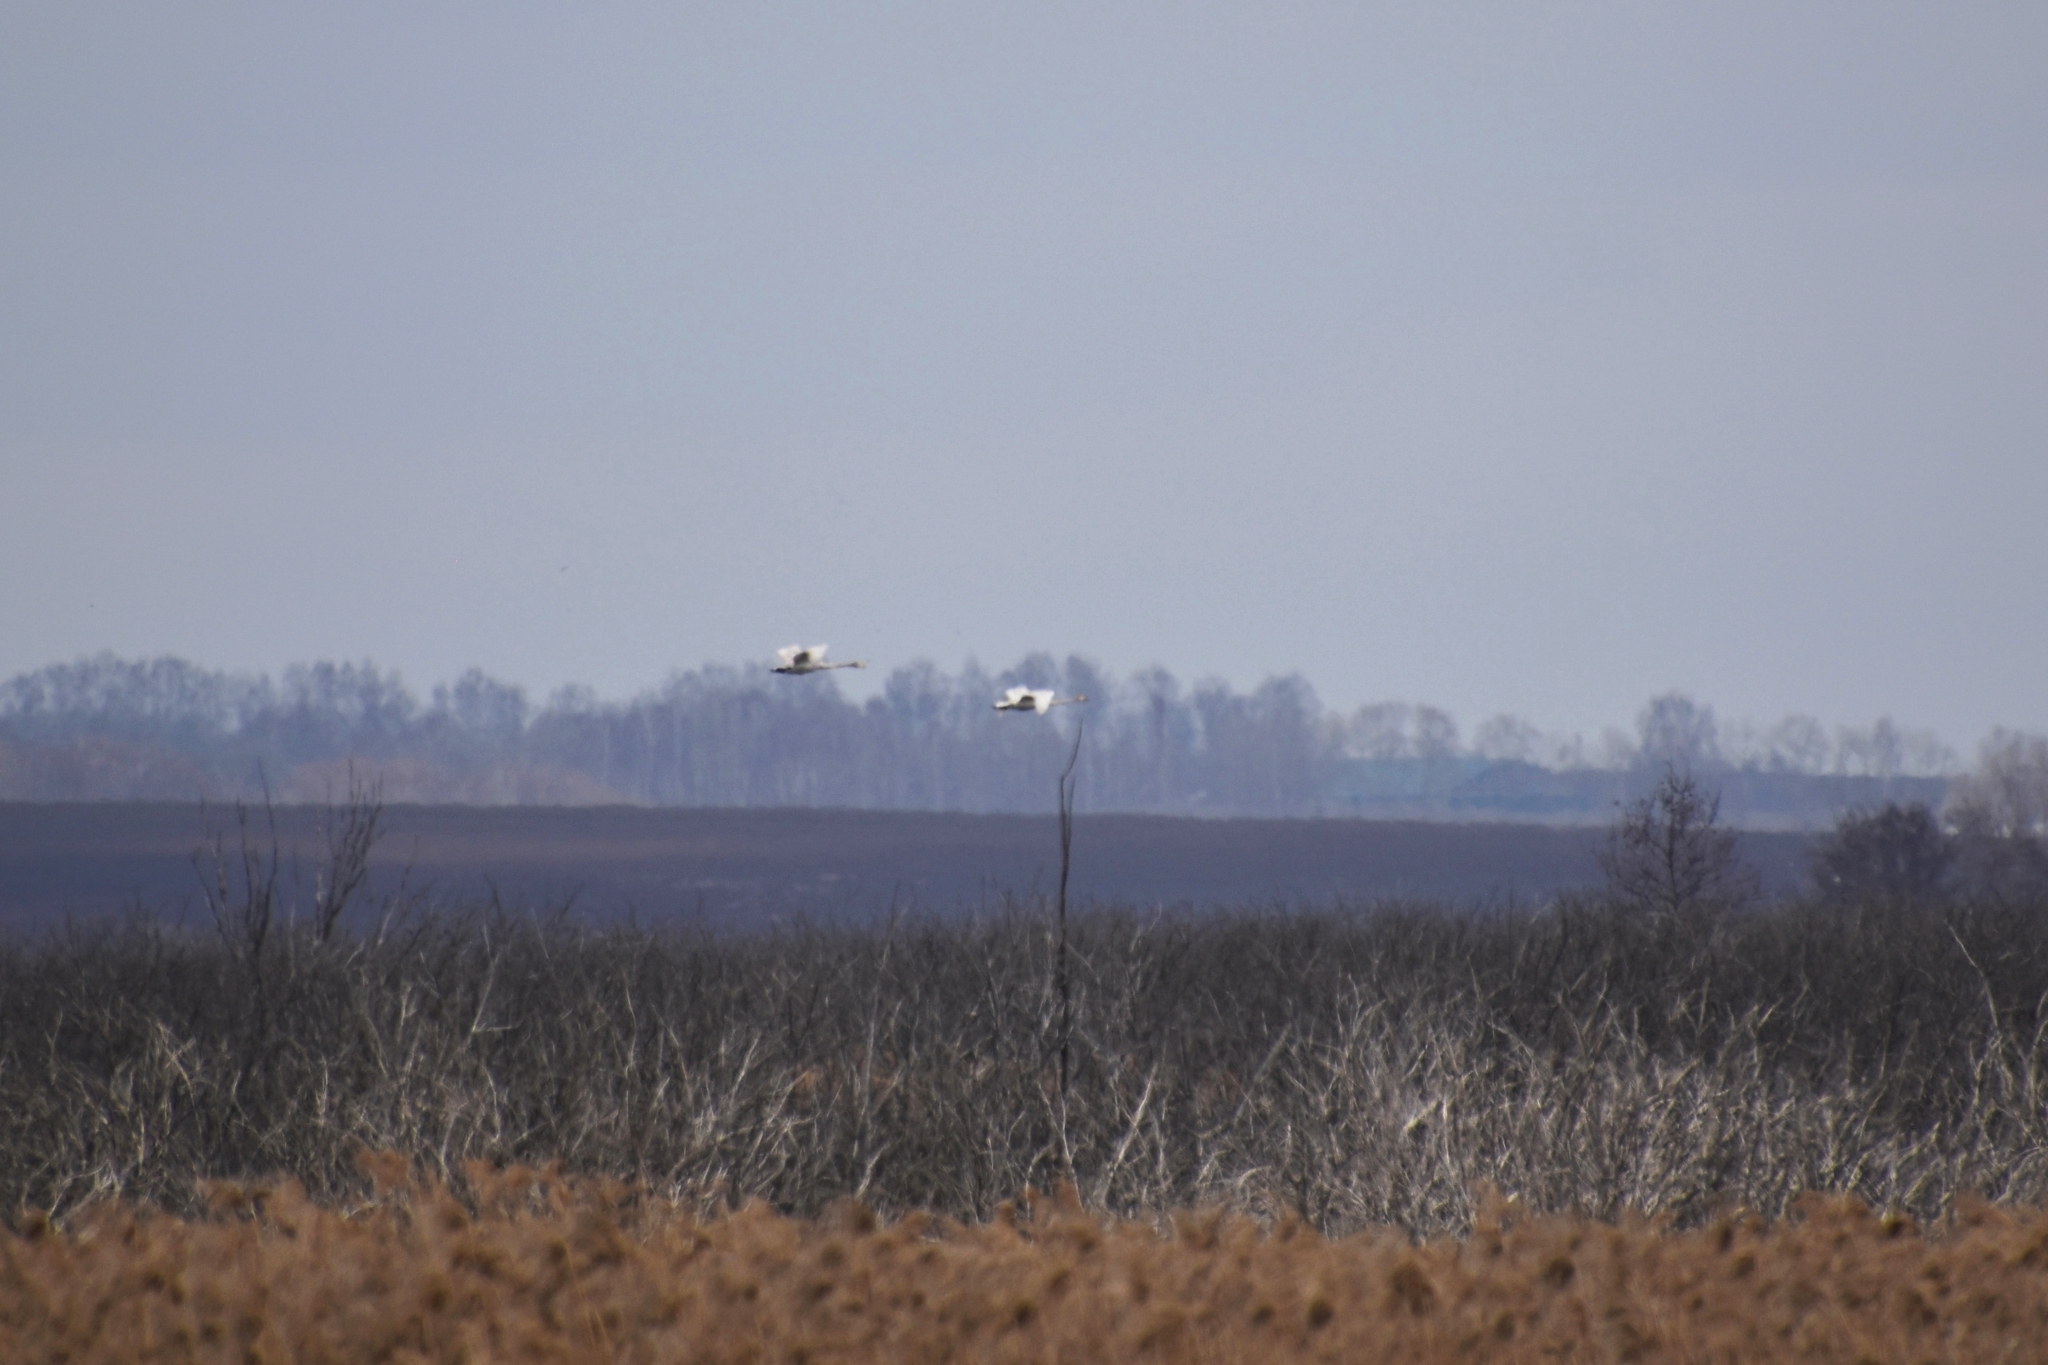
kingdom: Animalia
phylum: Chordata
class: Aves
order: Anseriformes
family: Anatidae
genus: Cygnus
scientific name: Cygnus cygnus
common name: Whooper swan
